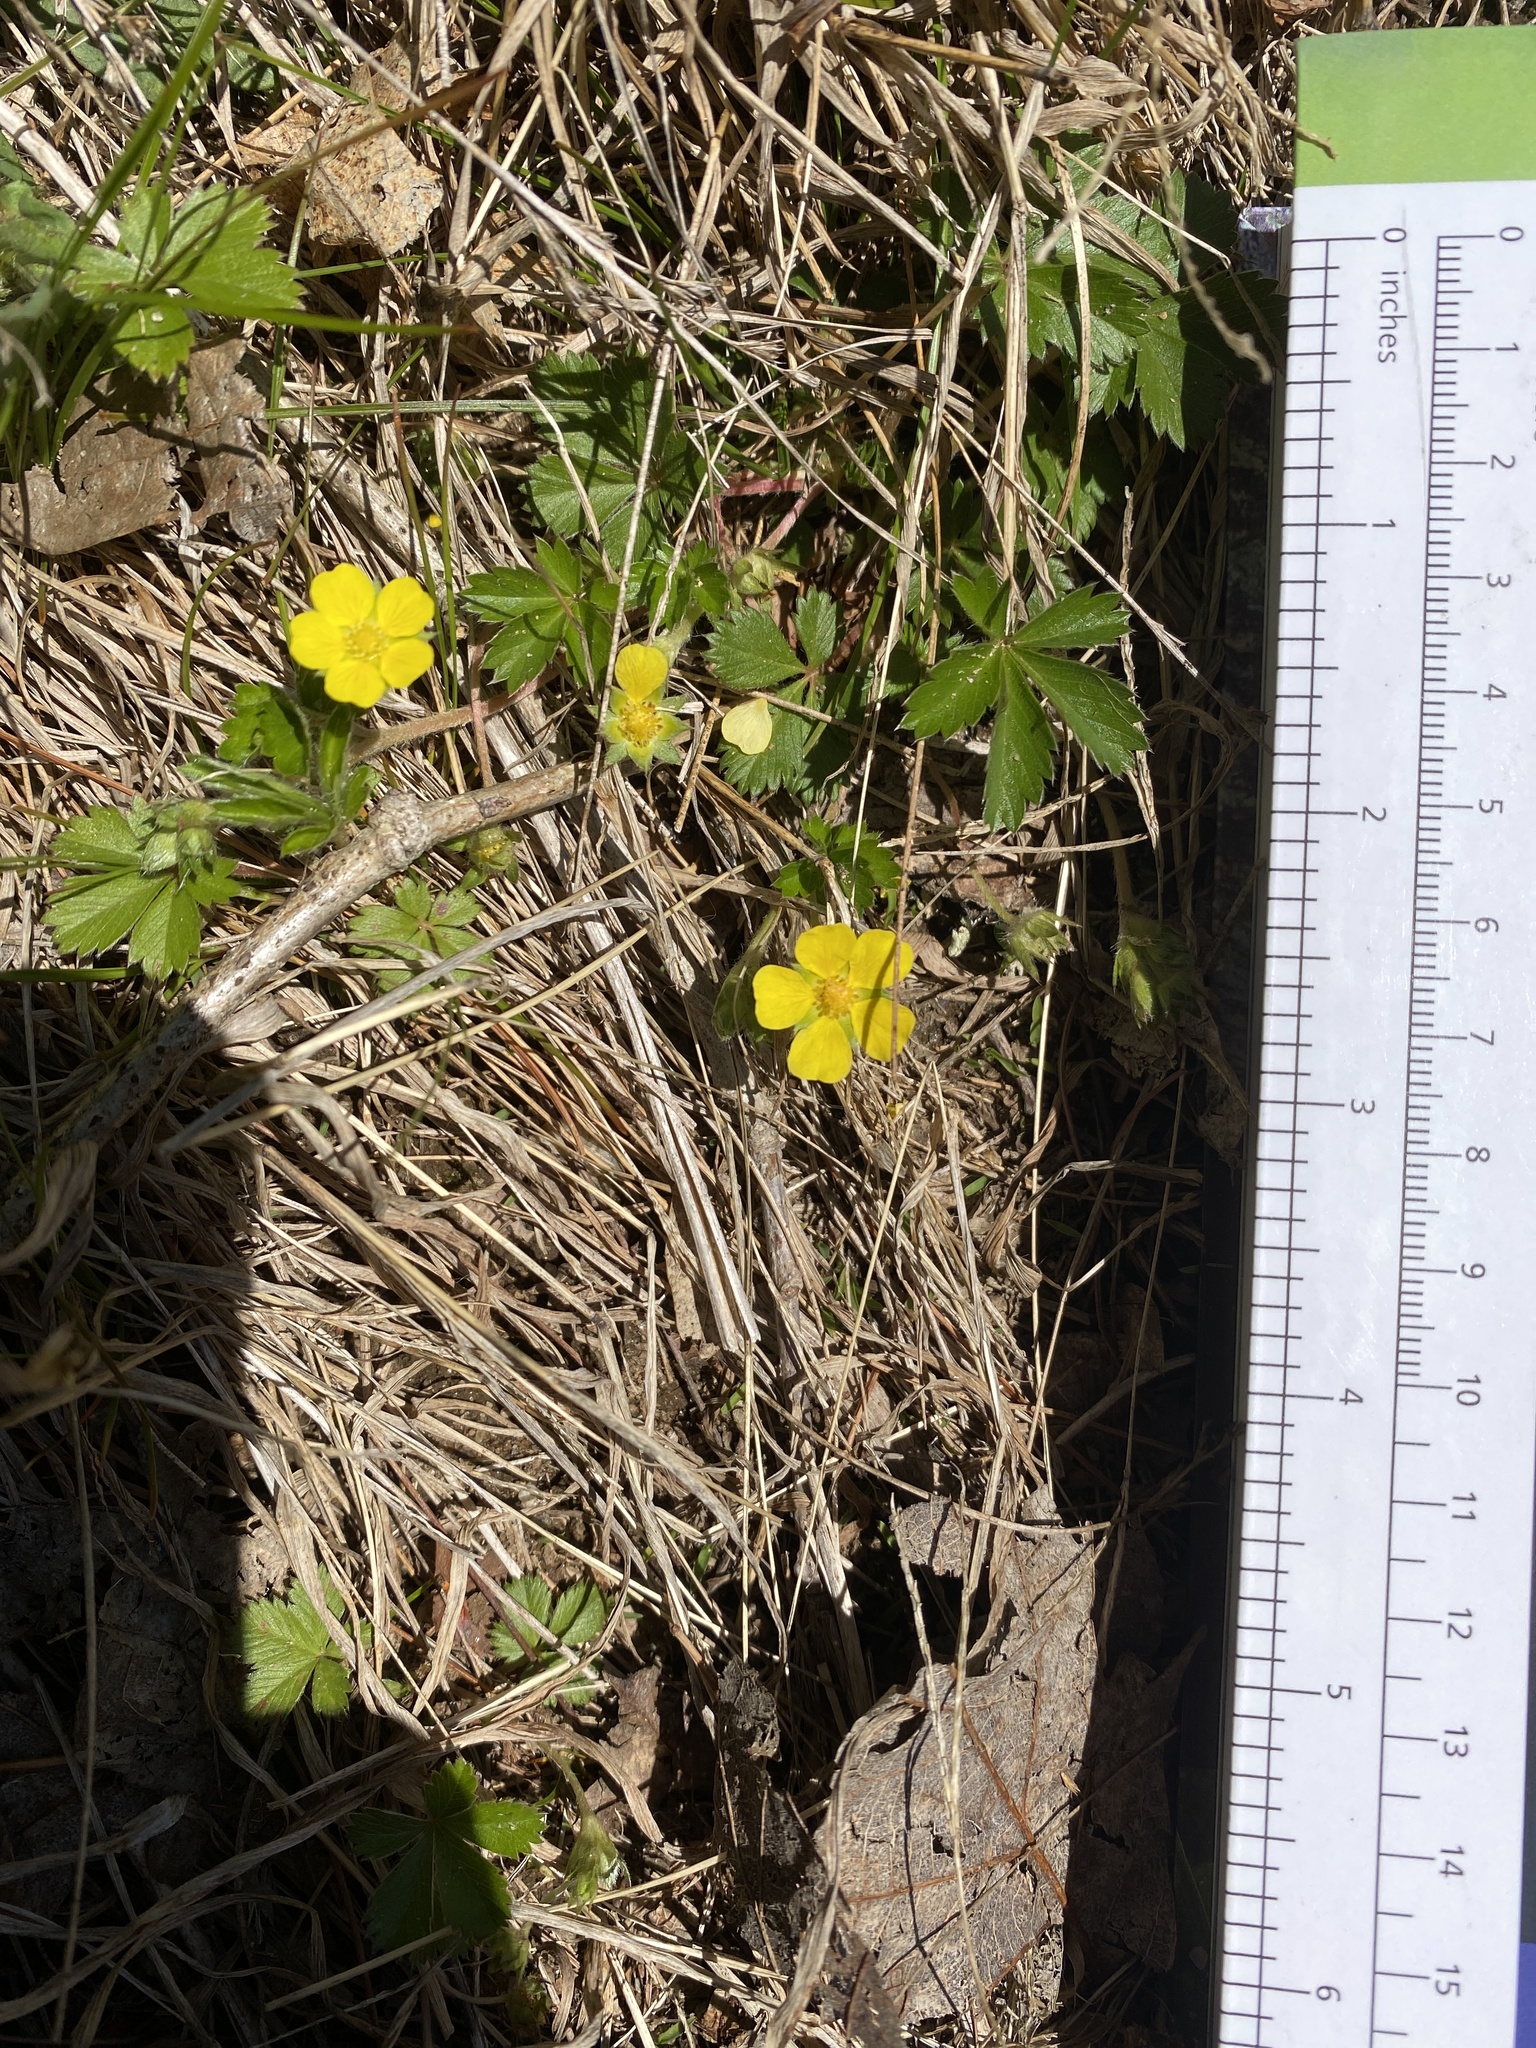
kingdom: Plantae
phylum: Tracheophyta
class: Magnoliopsida
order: Rosales
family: Rosaceae
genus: Potentilla
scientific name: Potentilla canadensis
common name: Canada cinquefoil
